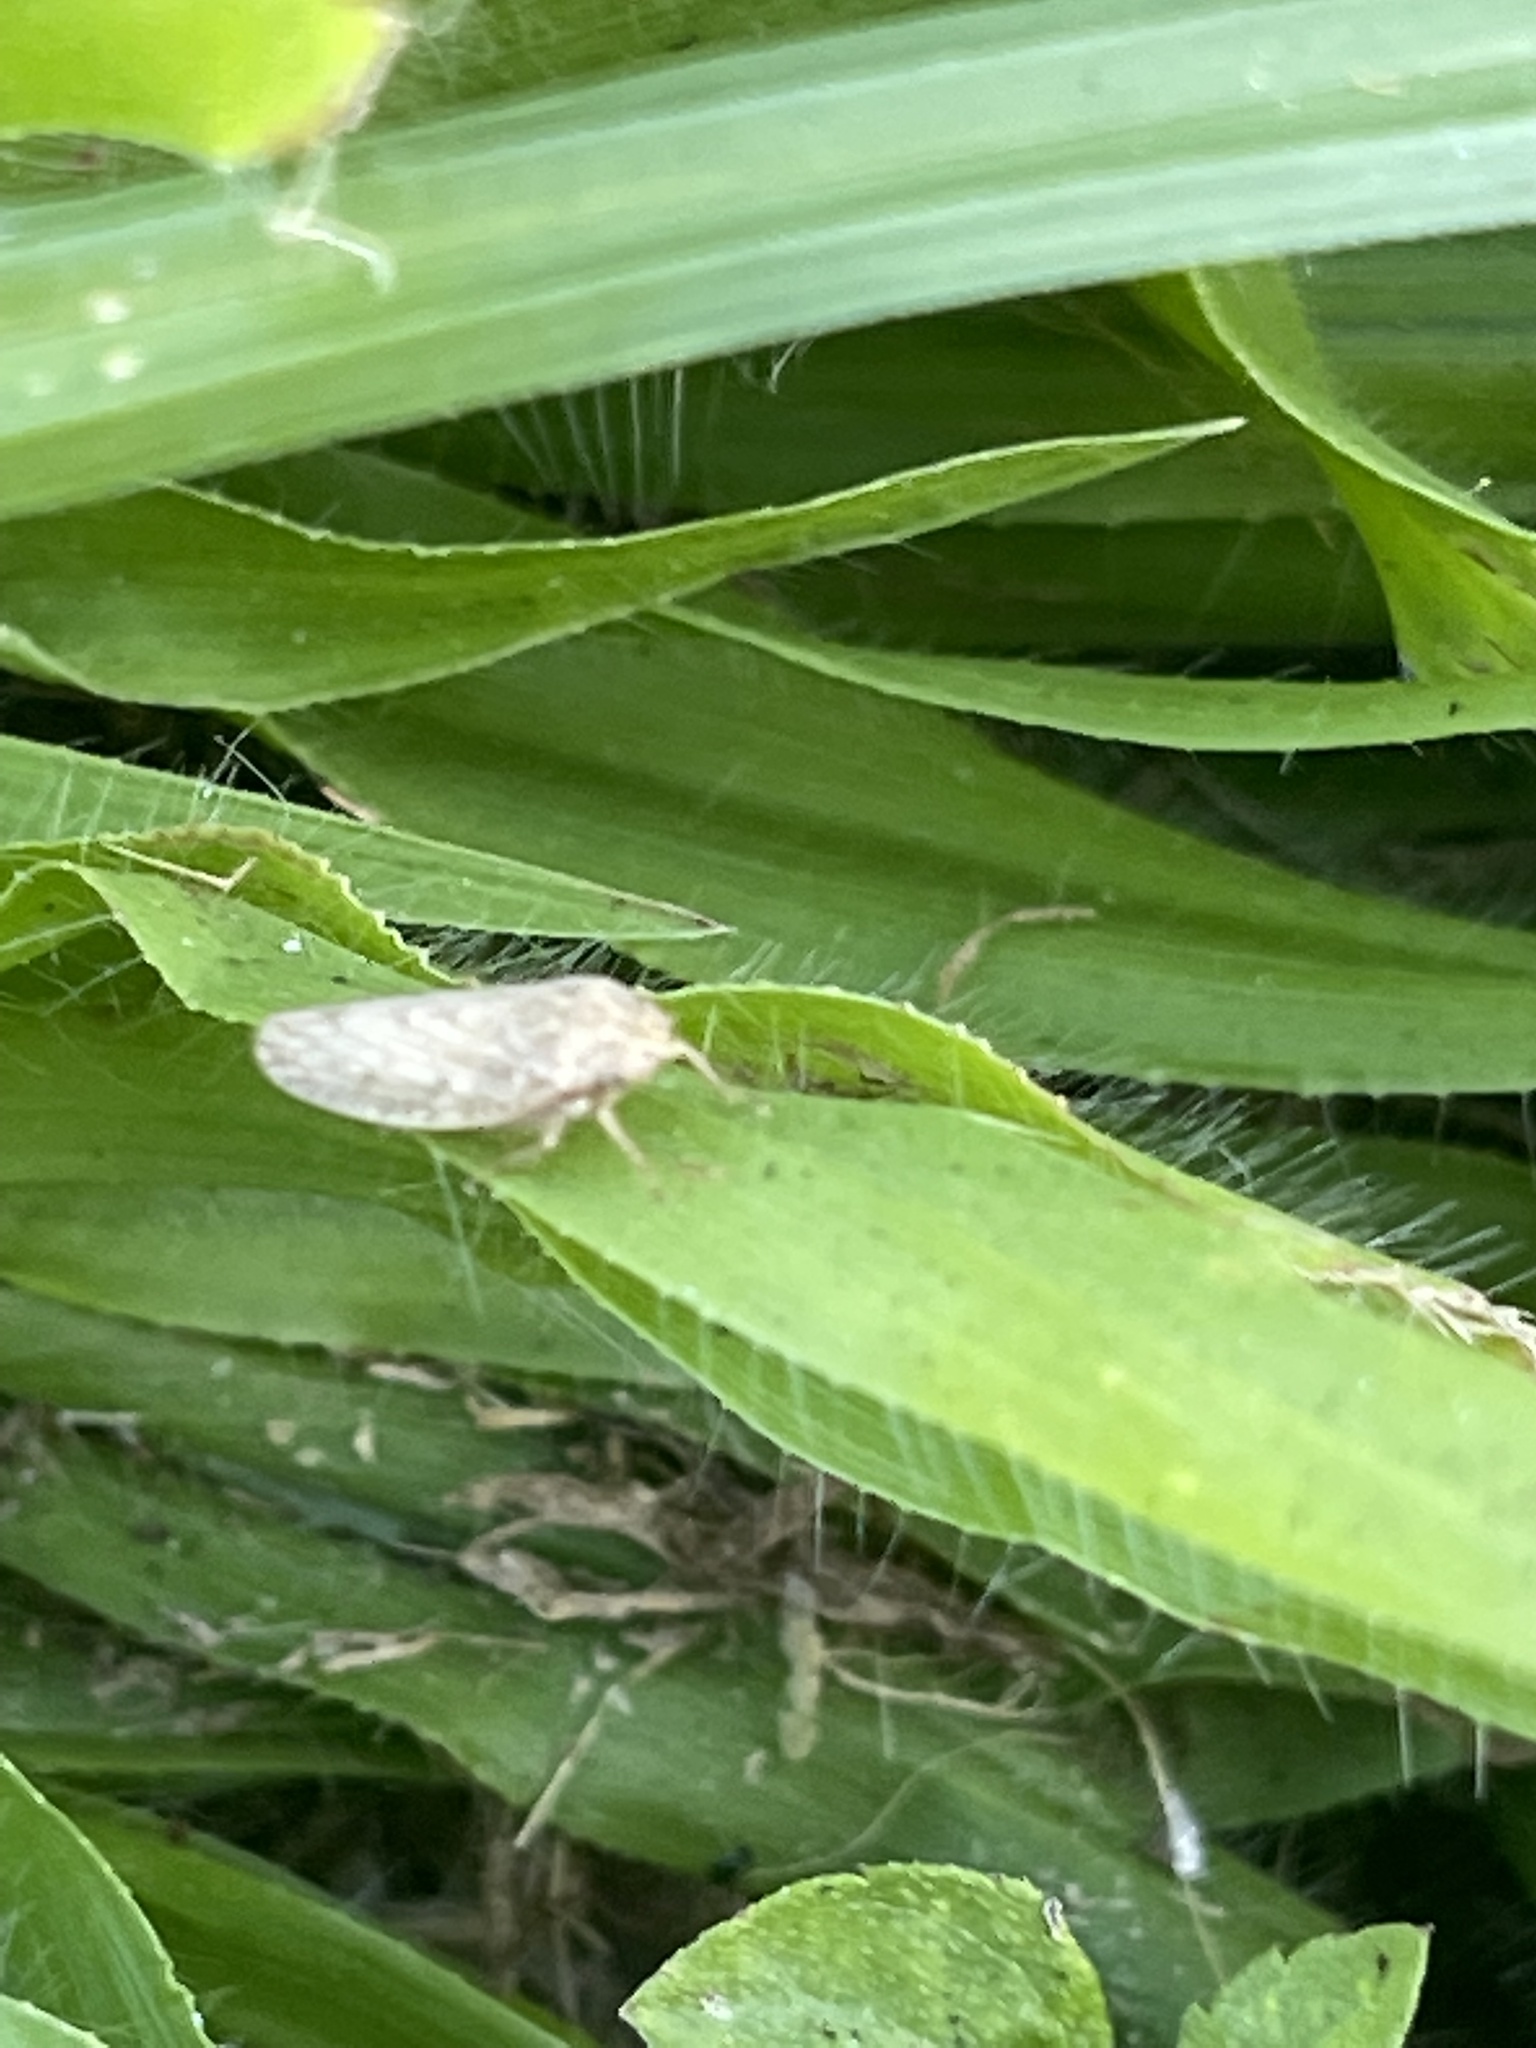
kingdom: Animalia
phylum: Arthropoda
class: Insecta
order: Hemiptera
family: Cicadellidae
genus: Curtara
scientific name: Curtara insularis
